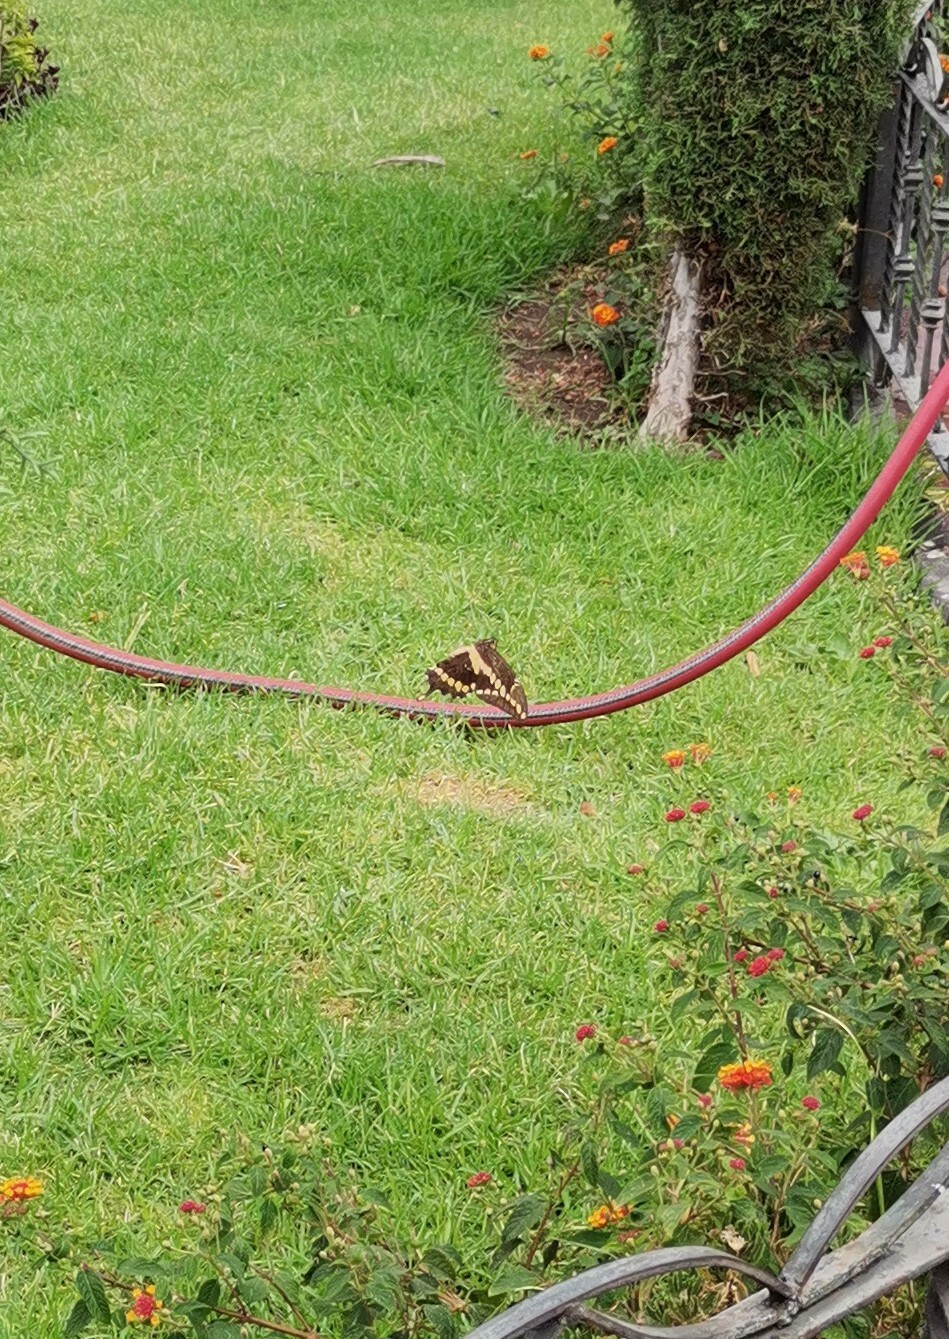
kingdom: Animalia
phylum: Arthropoda
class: Insecta
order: Lepidoptera
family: Papilionidae
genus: Papilio
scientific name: Papilio rumiko
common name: Western giant swallowtail
